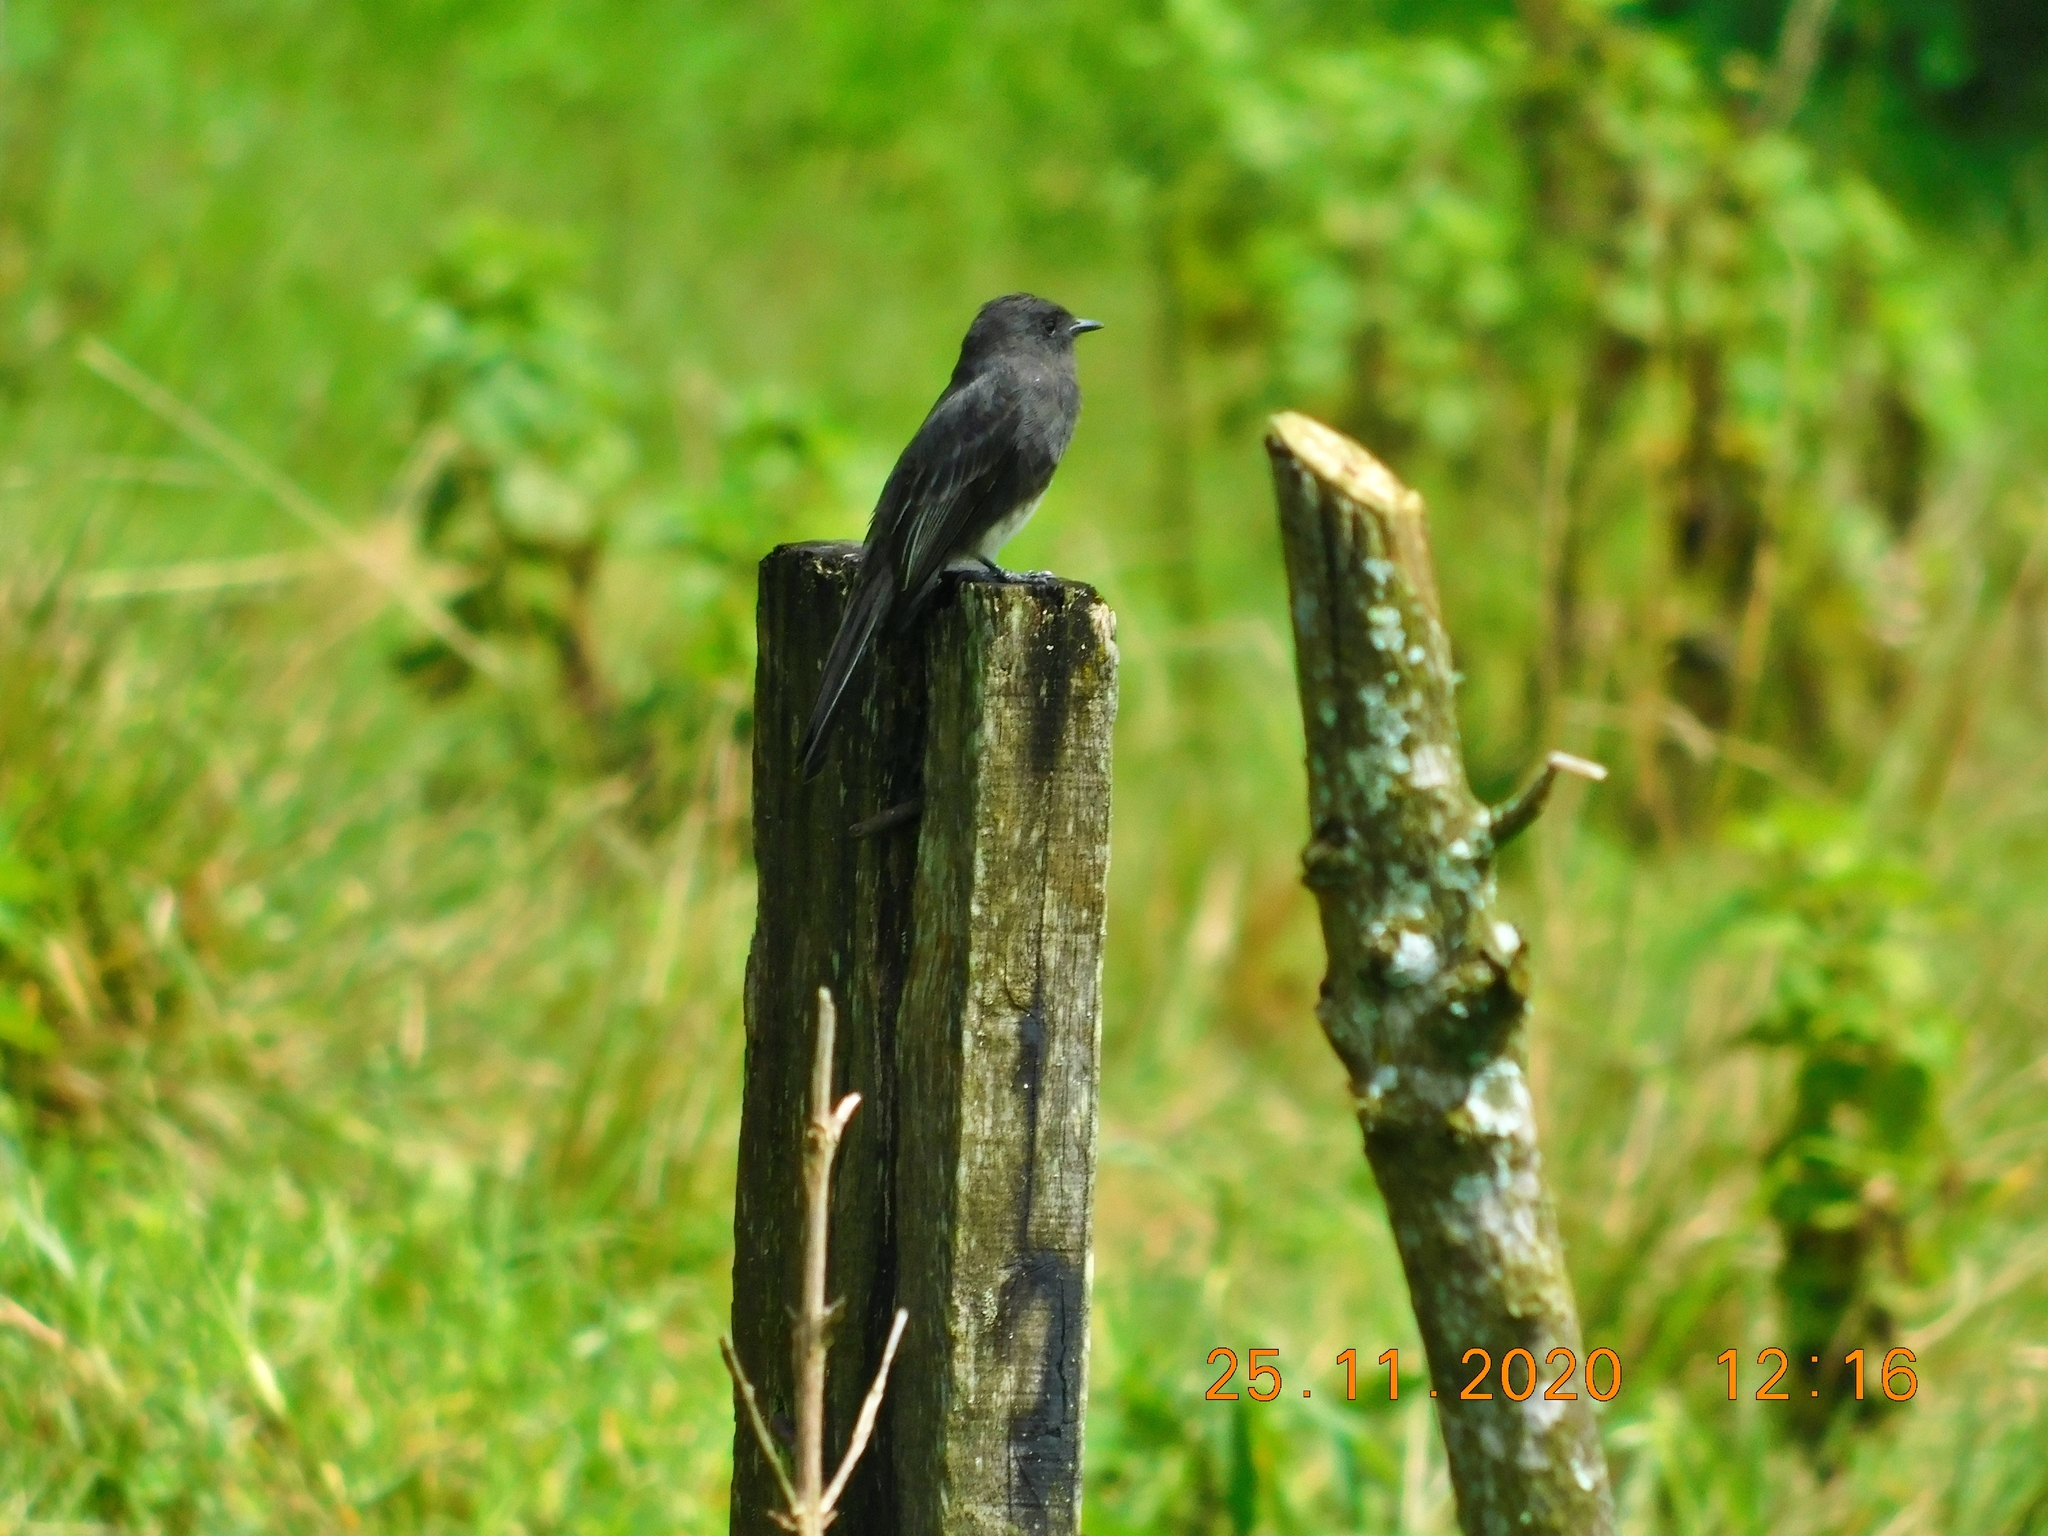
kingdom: Animalia
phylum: Chordata
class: Aves
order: Passeriformes
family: Tyrannidae
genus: Sayornis
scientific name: Sayornis nigricans
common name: Black phoebe
